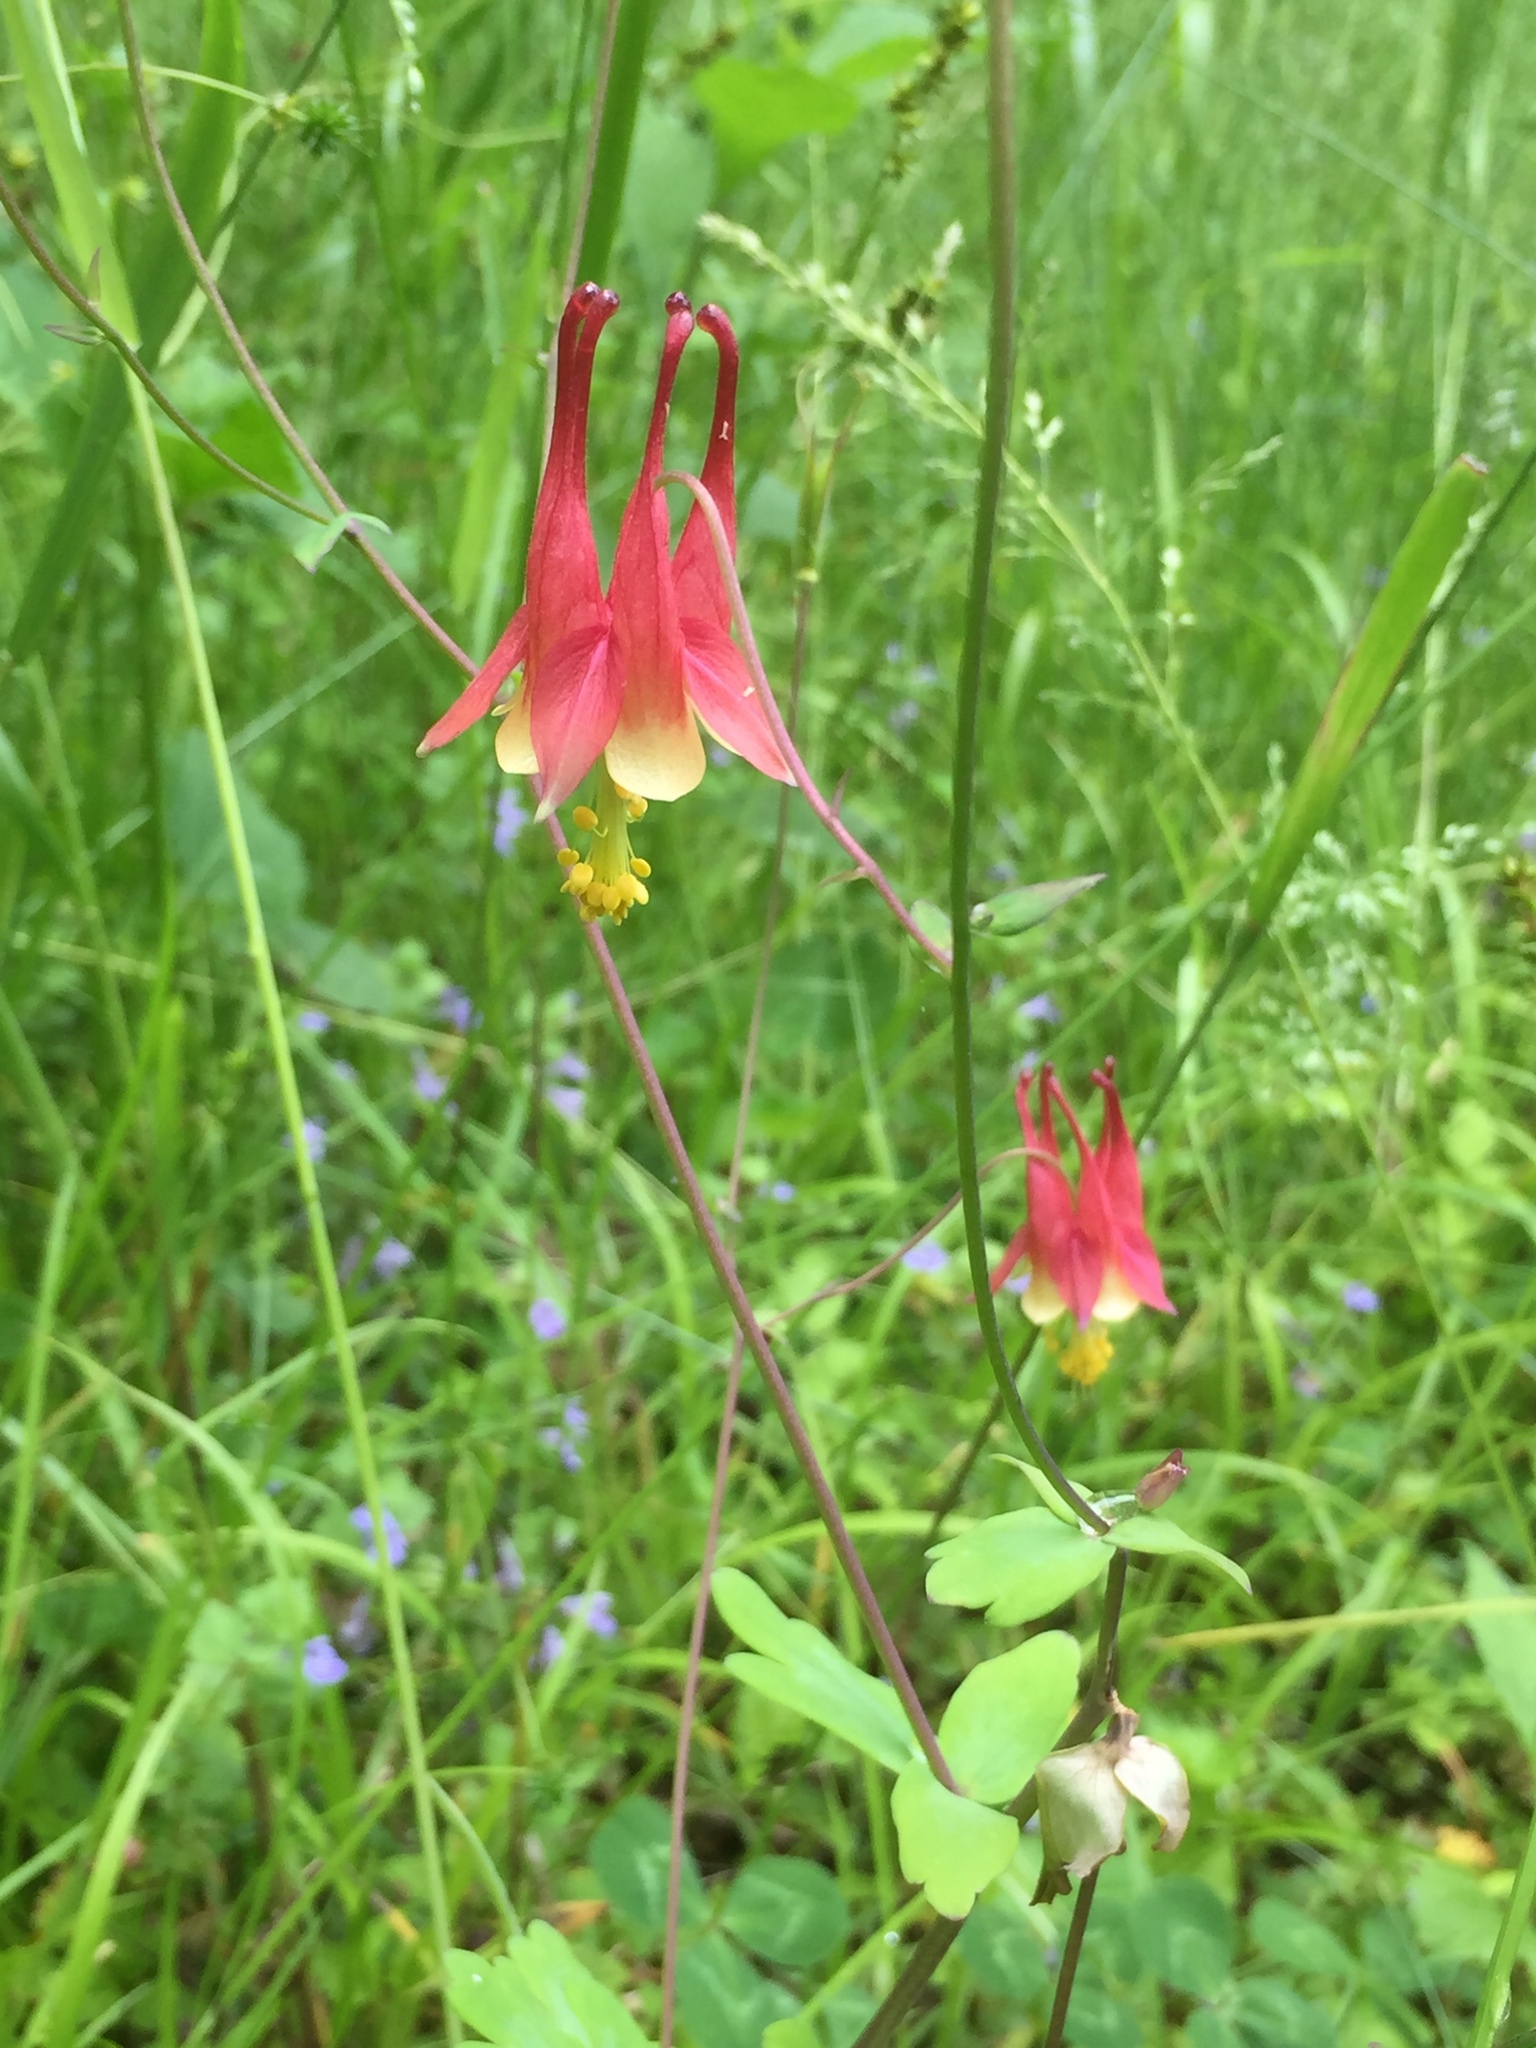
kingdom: Plantae
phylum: Tracheophyta
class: Magnoliopsida
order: Ranunculales
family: Ranunculaceae
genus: Aquilegia
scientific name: Aquilegia canadensis
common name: American columbine
